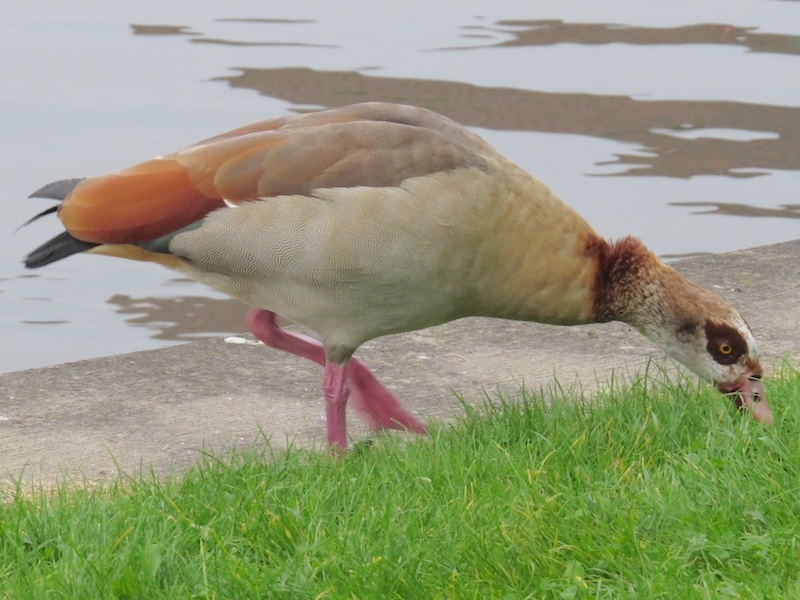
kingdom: Animalia
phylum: Chordata
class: Aves
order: Anseriformes
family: Anatidae
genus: Alopochen
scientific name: Alopochen aegyptiaca
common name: Egyptian goose
